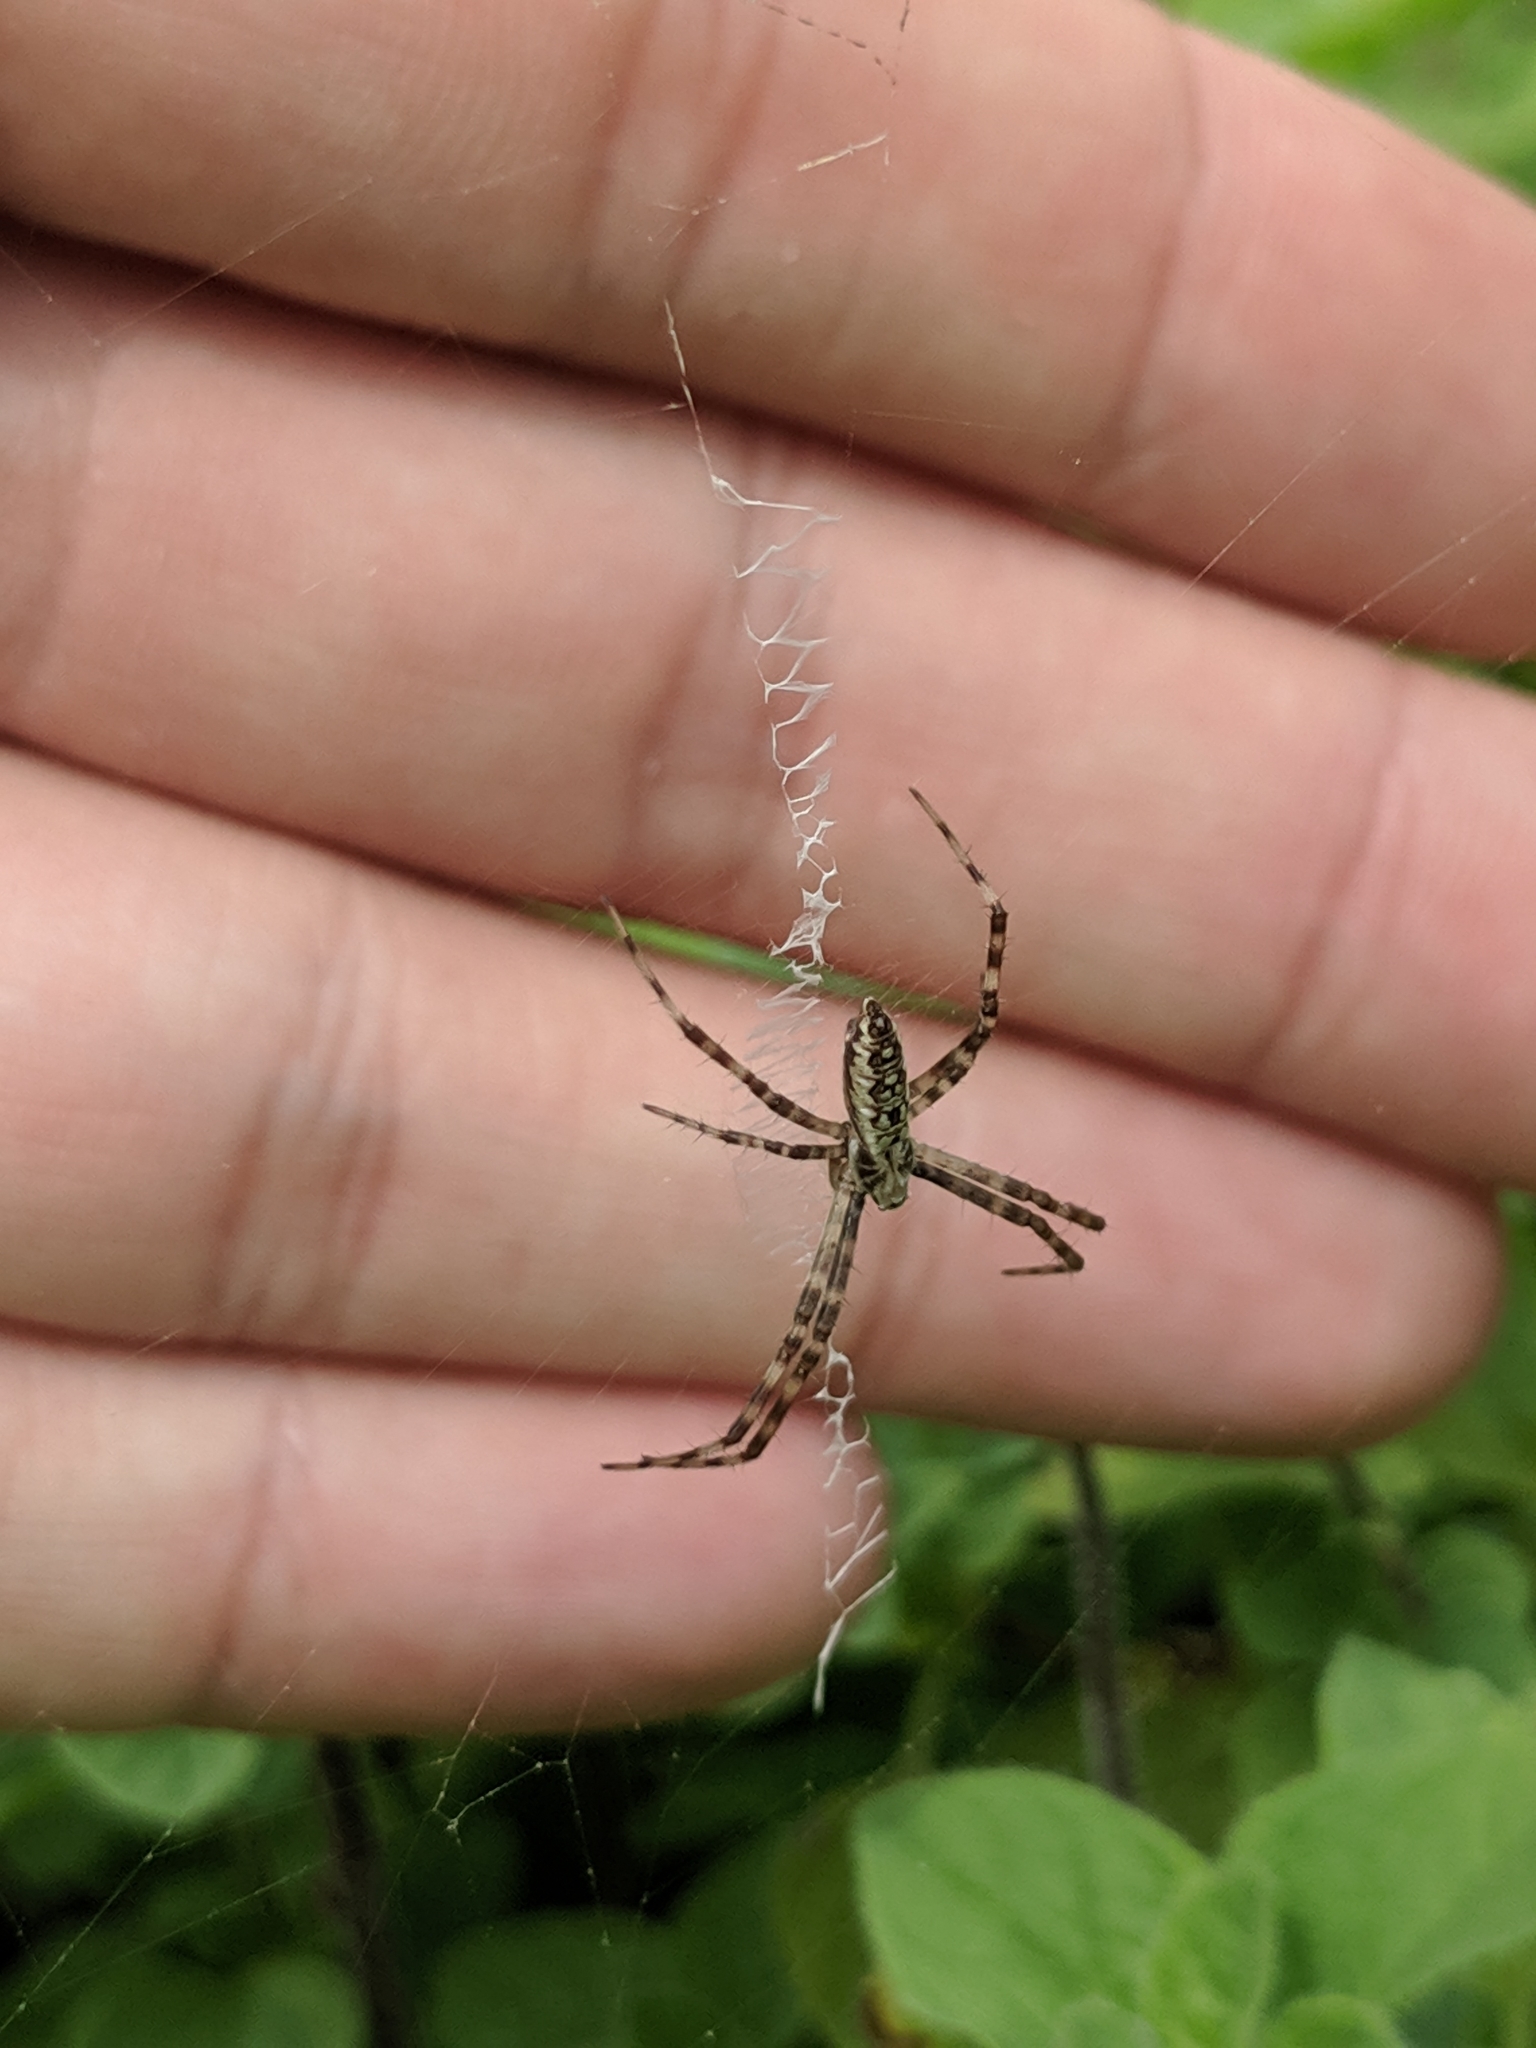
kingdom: Animalia
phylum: Arthropoda
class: Arachnida
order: Araneae
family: Araneidae
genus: Argiope
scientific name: Argiope aurantia
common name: Orb weavers
